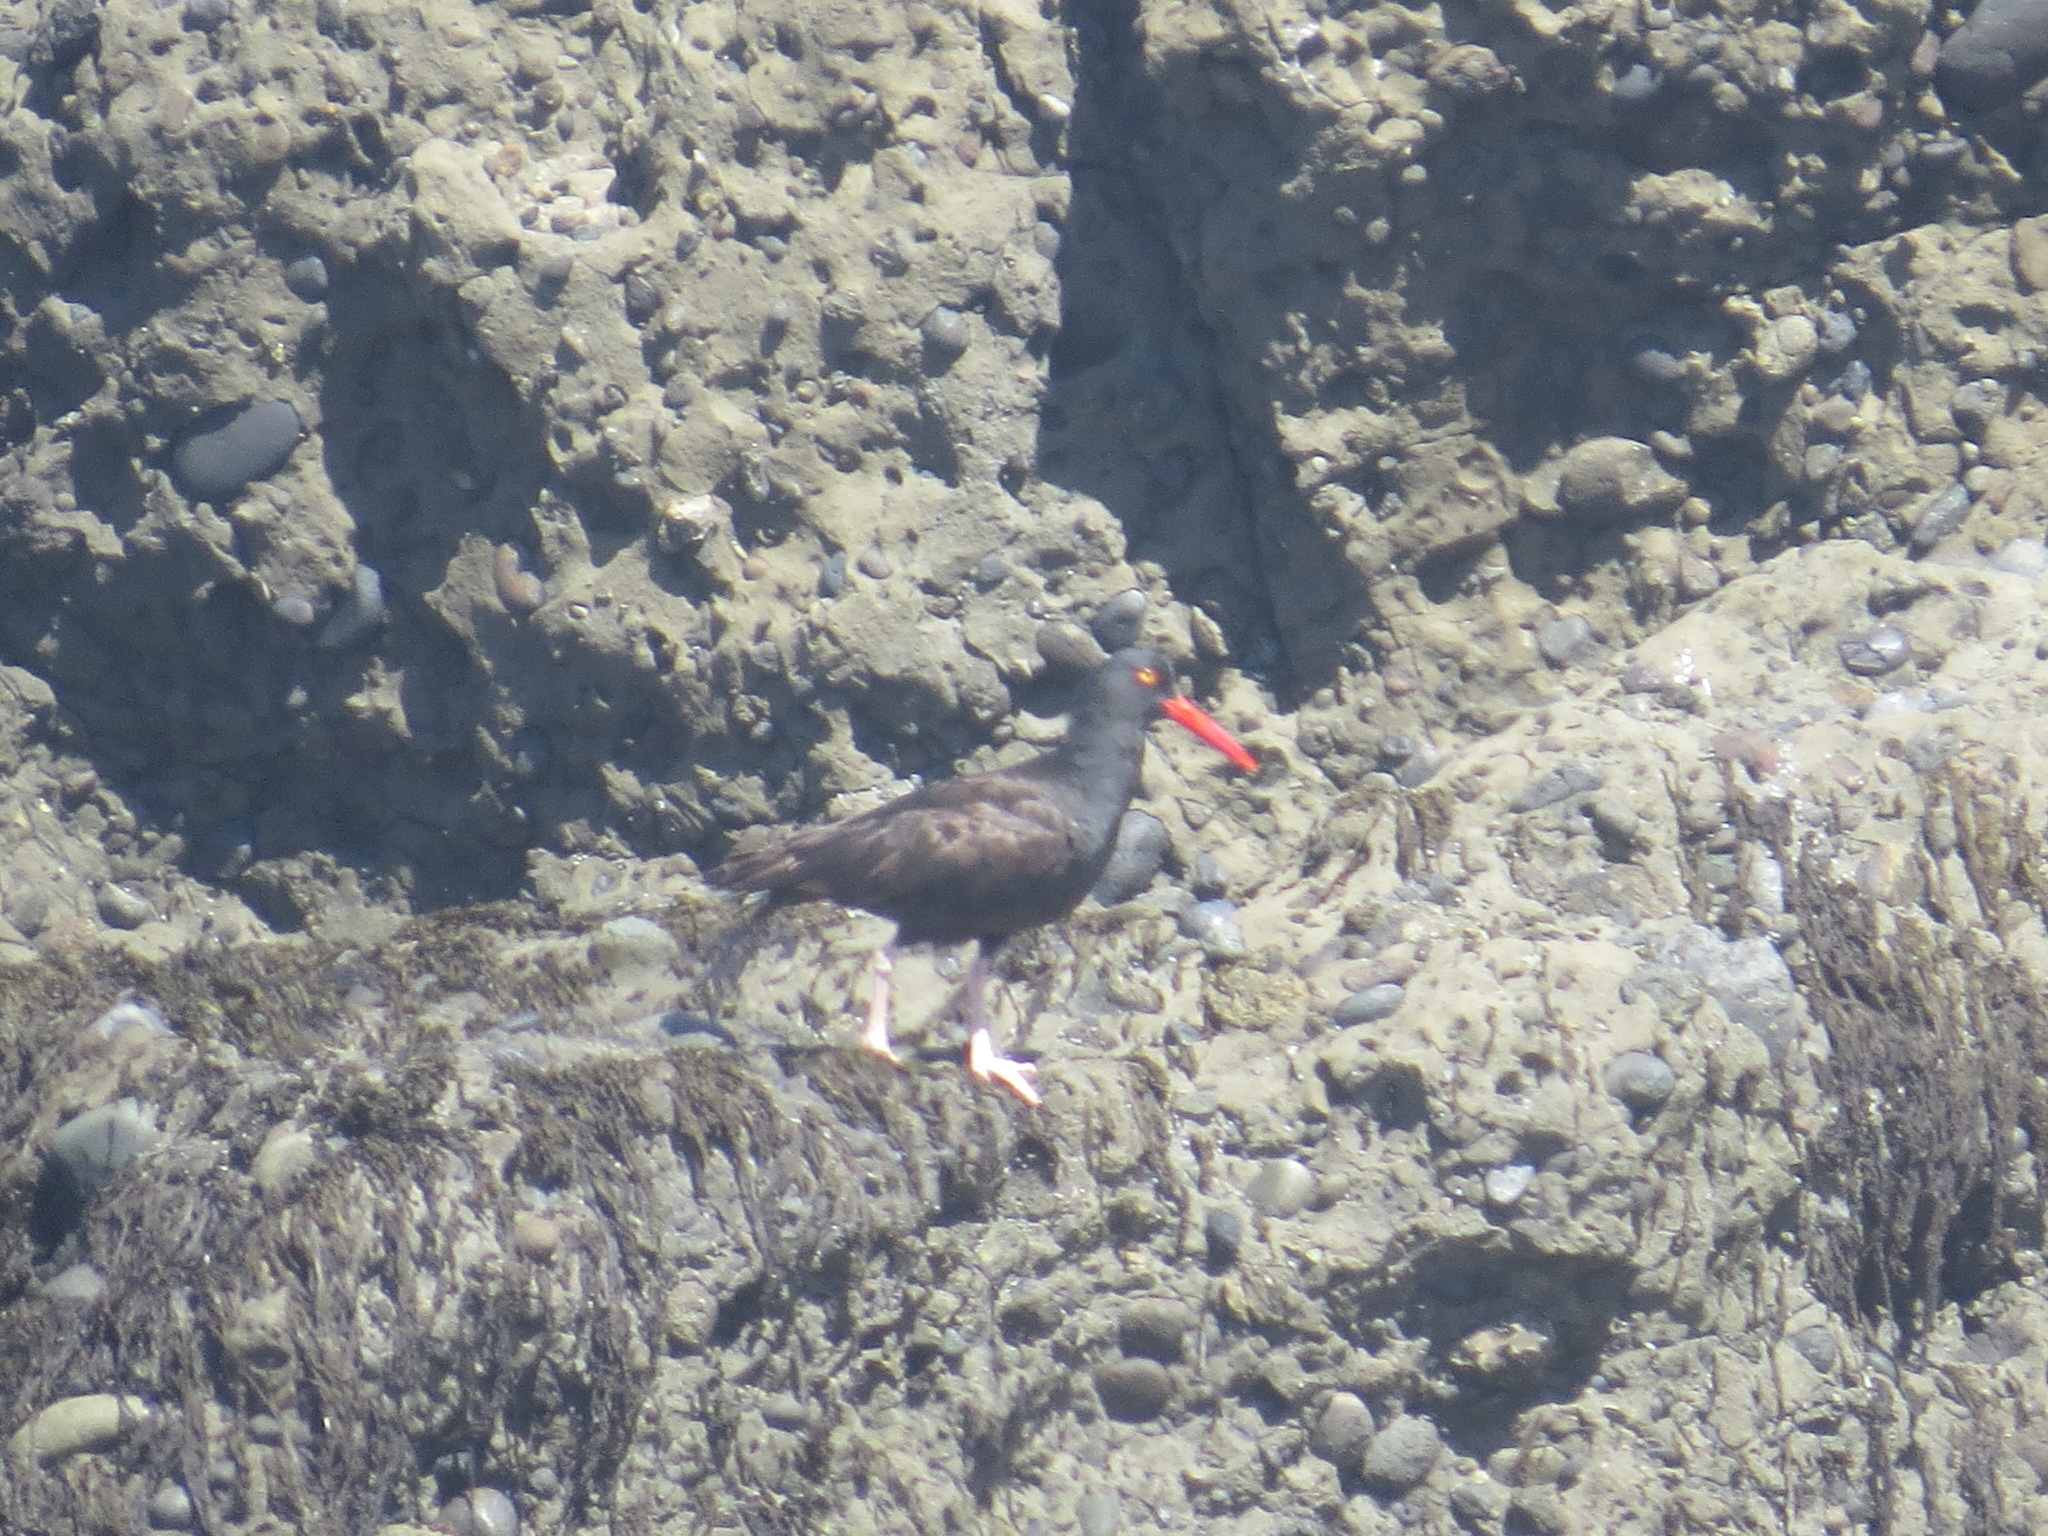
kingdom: Animalia
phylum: Chordata
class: Aves
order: Charadriiformes
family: Haematopodidae
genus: Haematopus
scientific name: Haematopus bachmani
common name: Black oystercatcher
